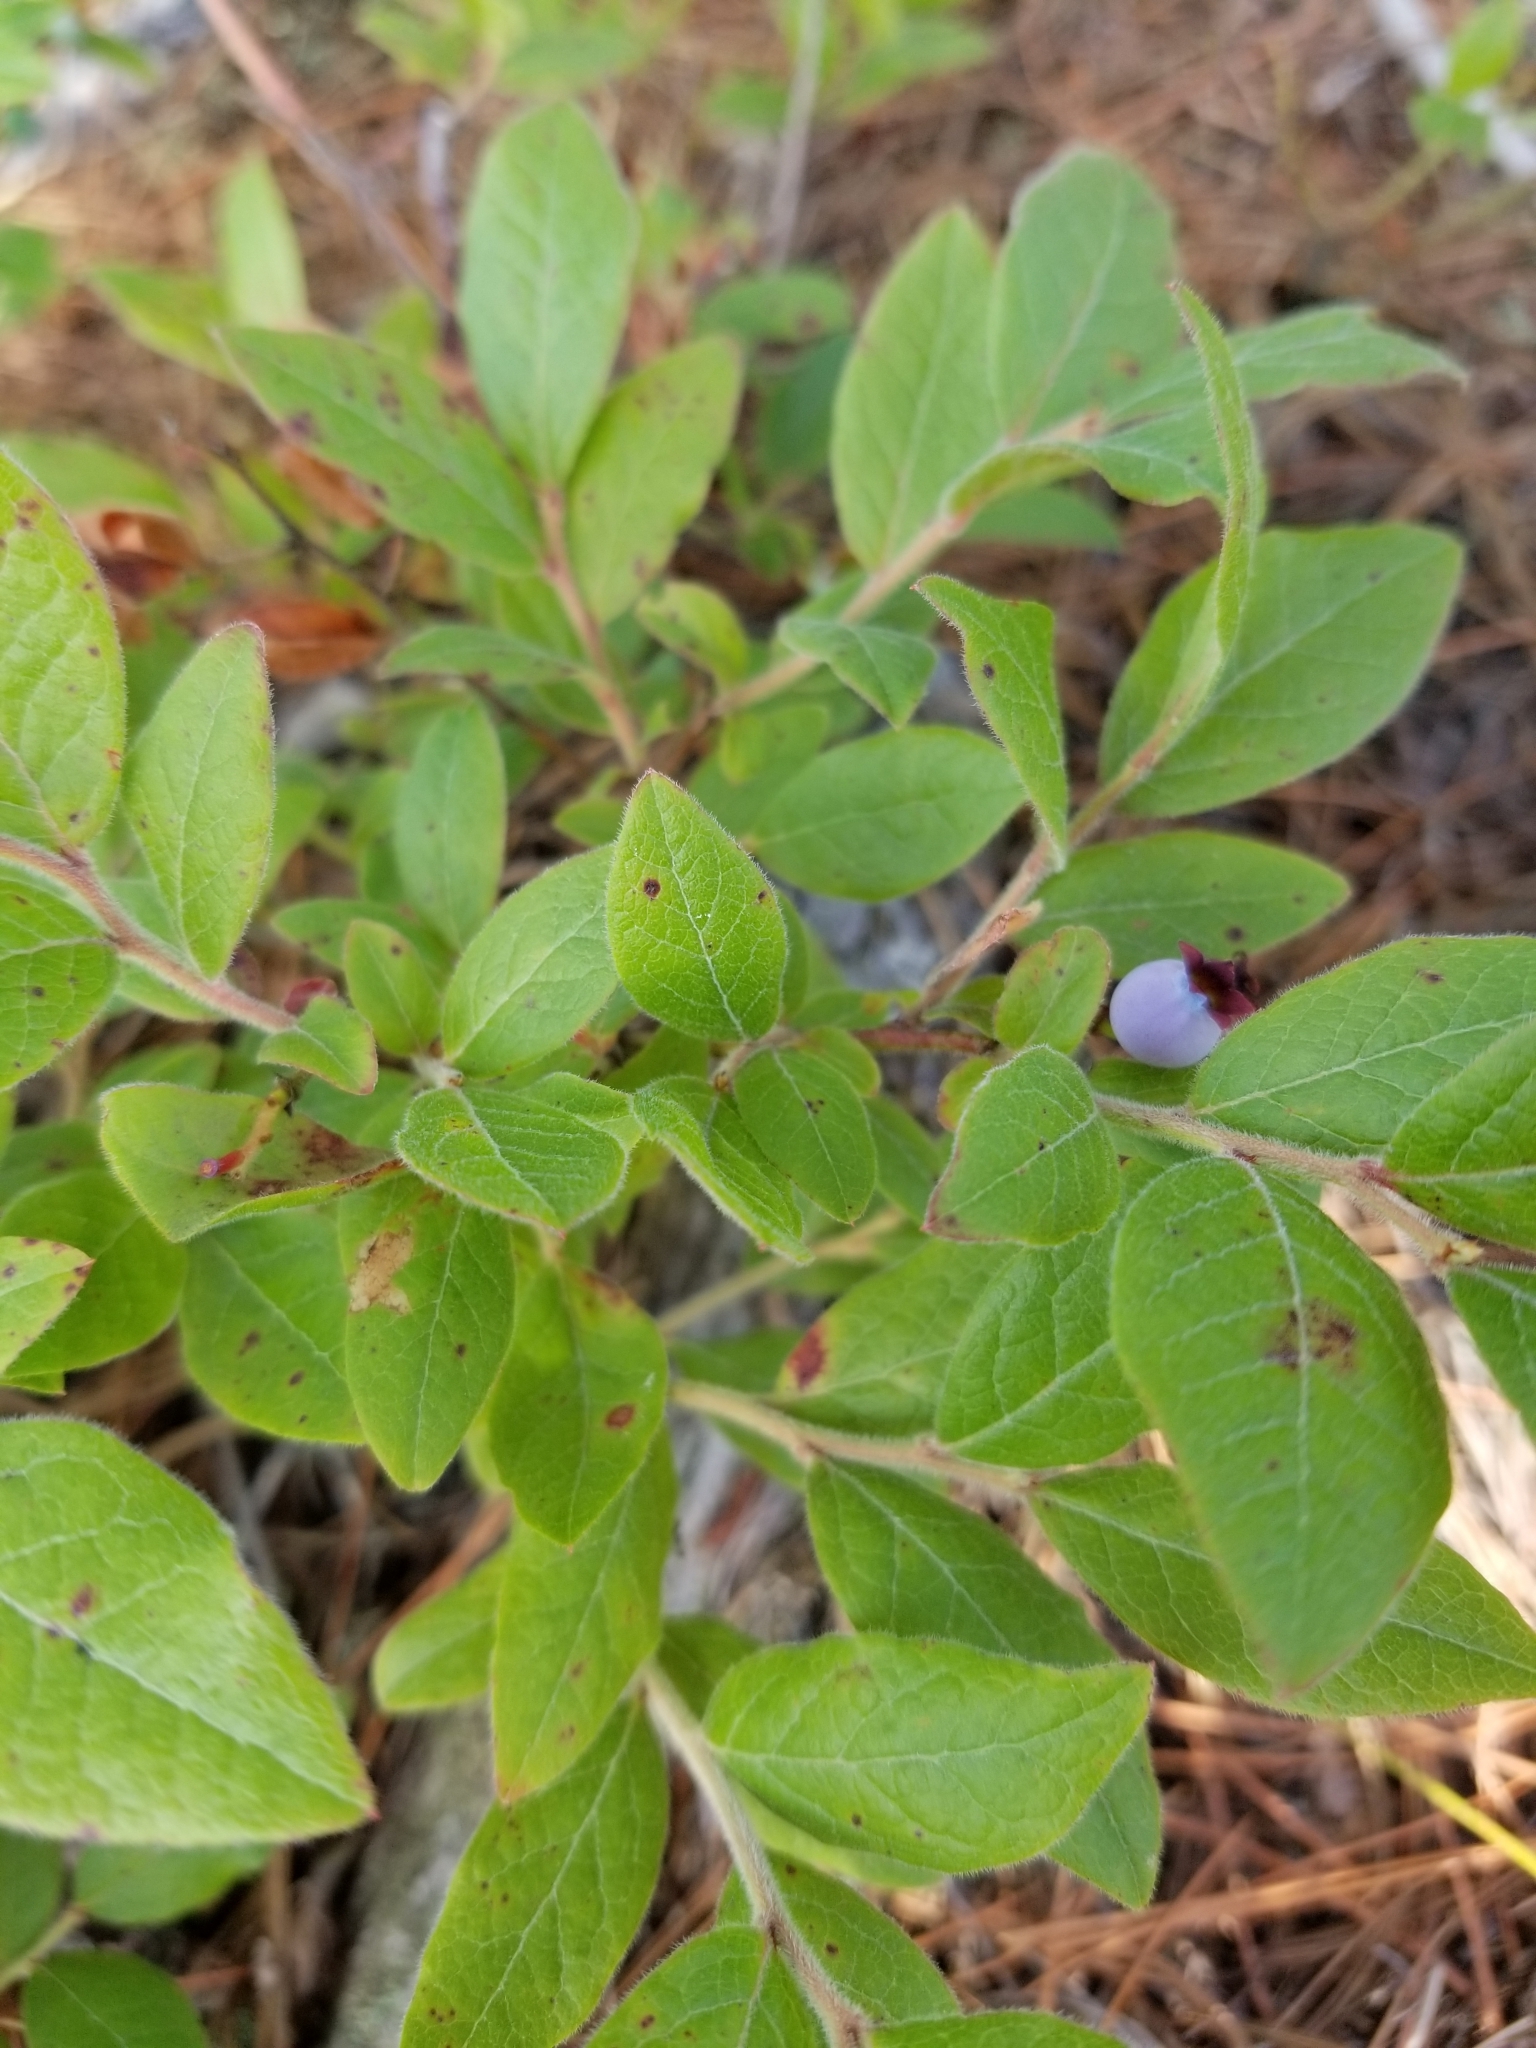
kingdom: Plantae
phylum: Tracheophyta
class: Magnoliopsida
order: Ericales
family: Ericaceae
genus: Vaccinium
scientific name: Vaccinium myrtilloides
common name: Canada blueberry
